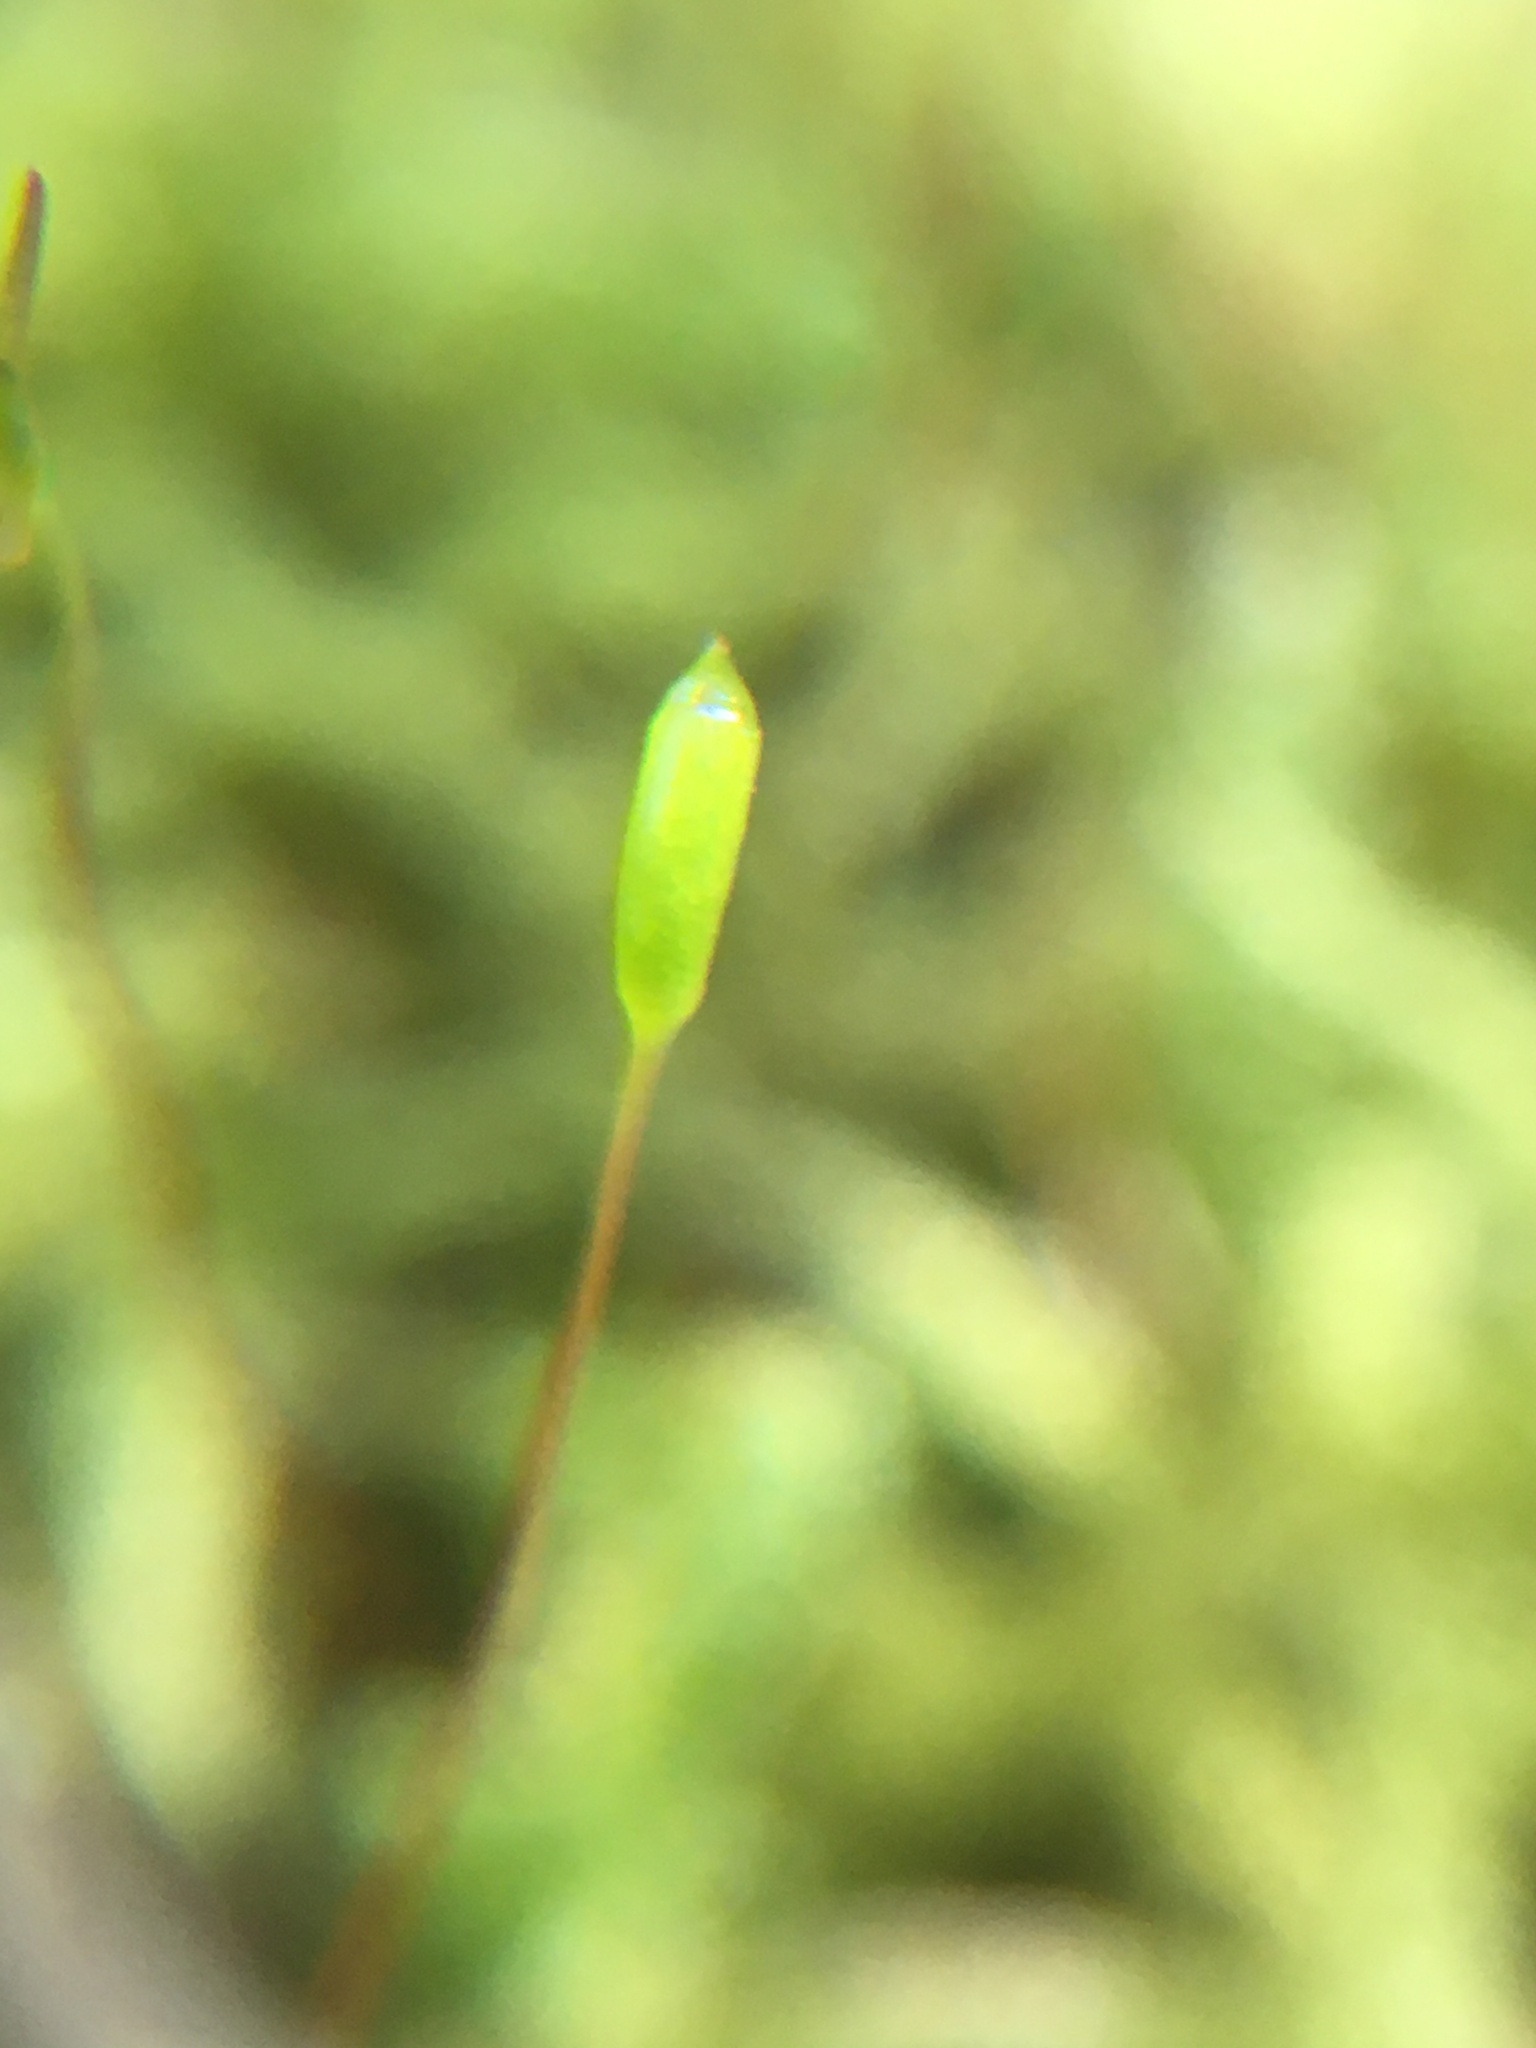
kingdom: Plantae
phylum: Bryophyta
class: Bryopsida
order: Hypnales
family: Hypnaceae
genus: Hypnum
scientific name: Hypnum cupressiforme
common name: Cypress-leaved plait-moss
